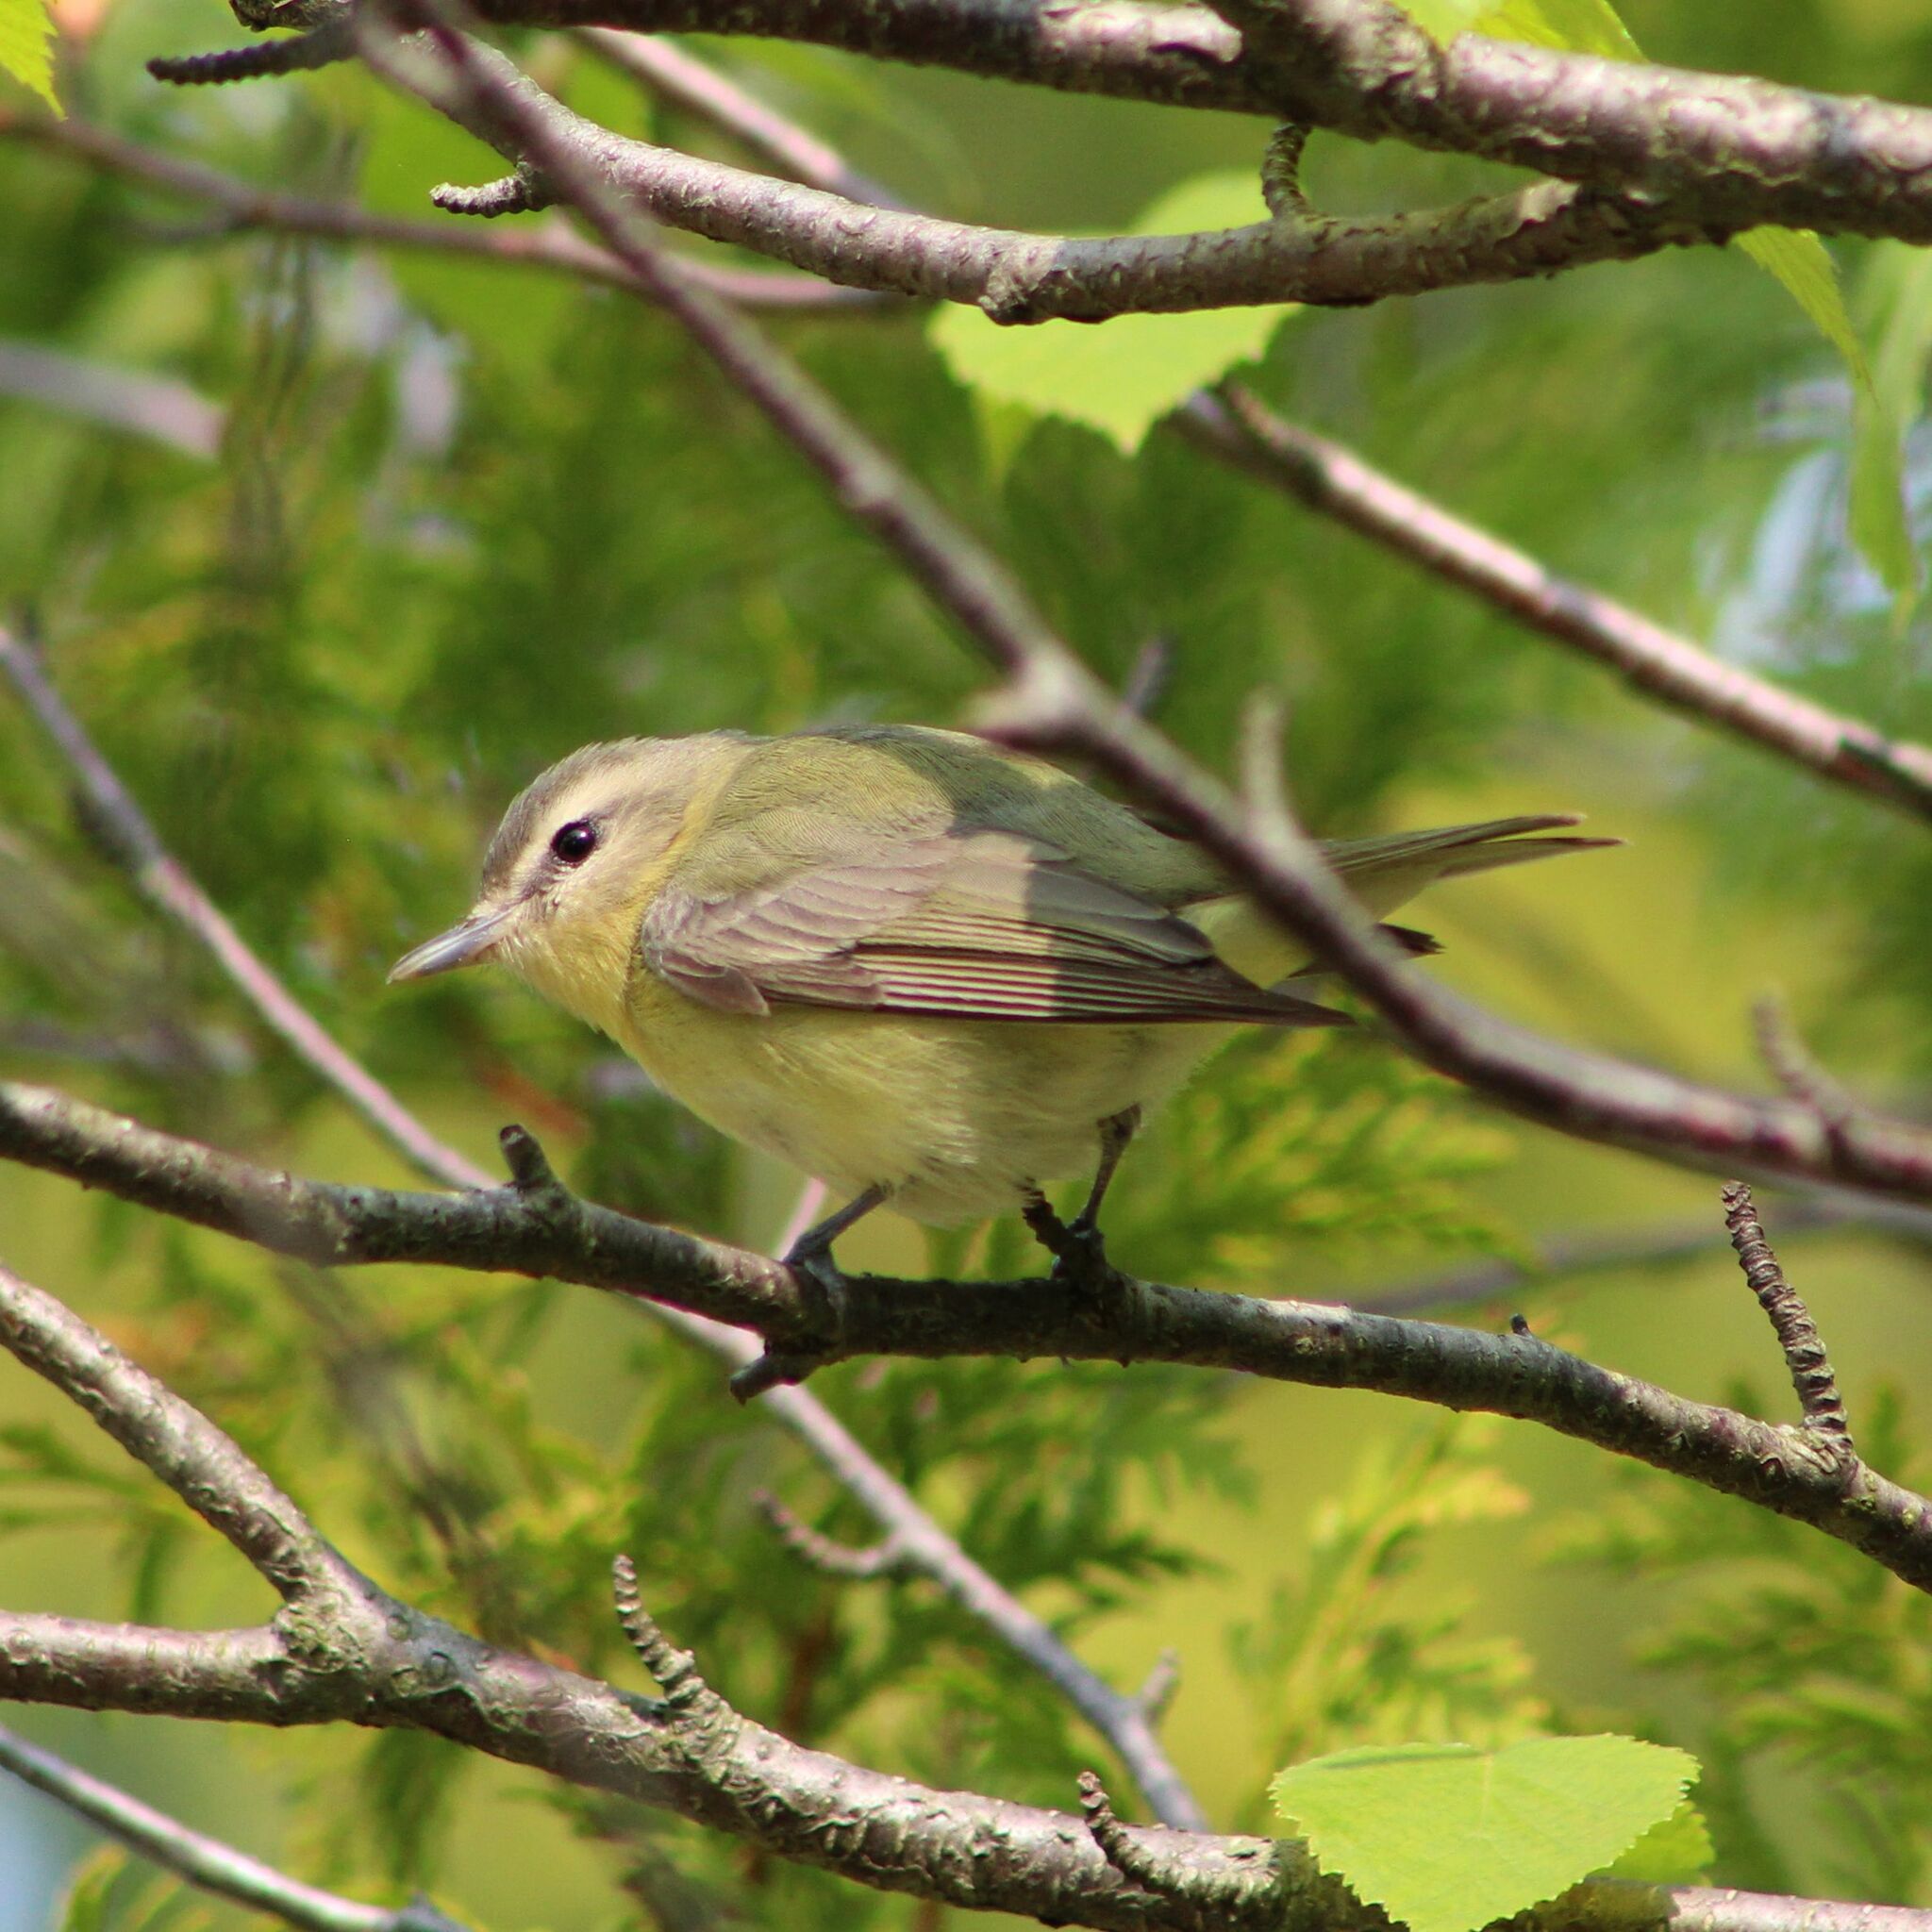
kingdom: Animalia
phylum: Chordata
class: Aves
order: Passeriformes
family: Vireonidae
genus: Vireo
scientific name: Vireo philadelphicus
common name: Philadelphia vireo
